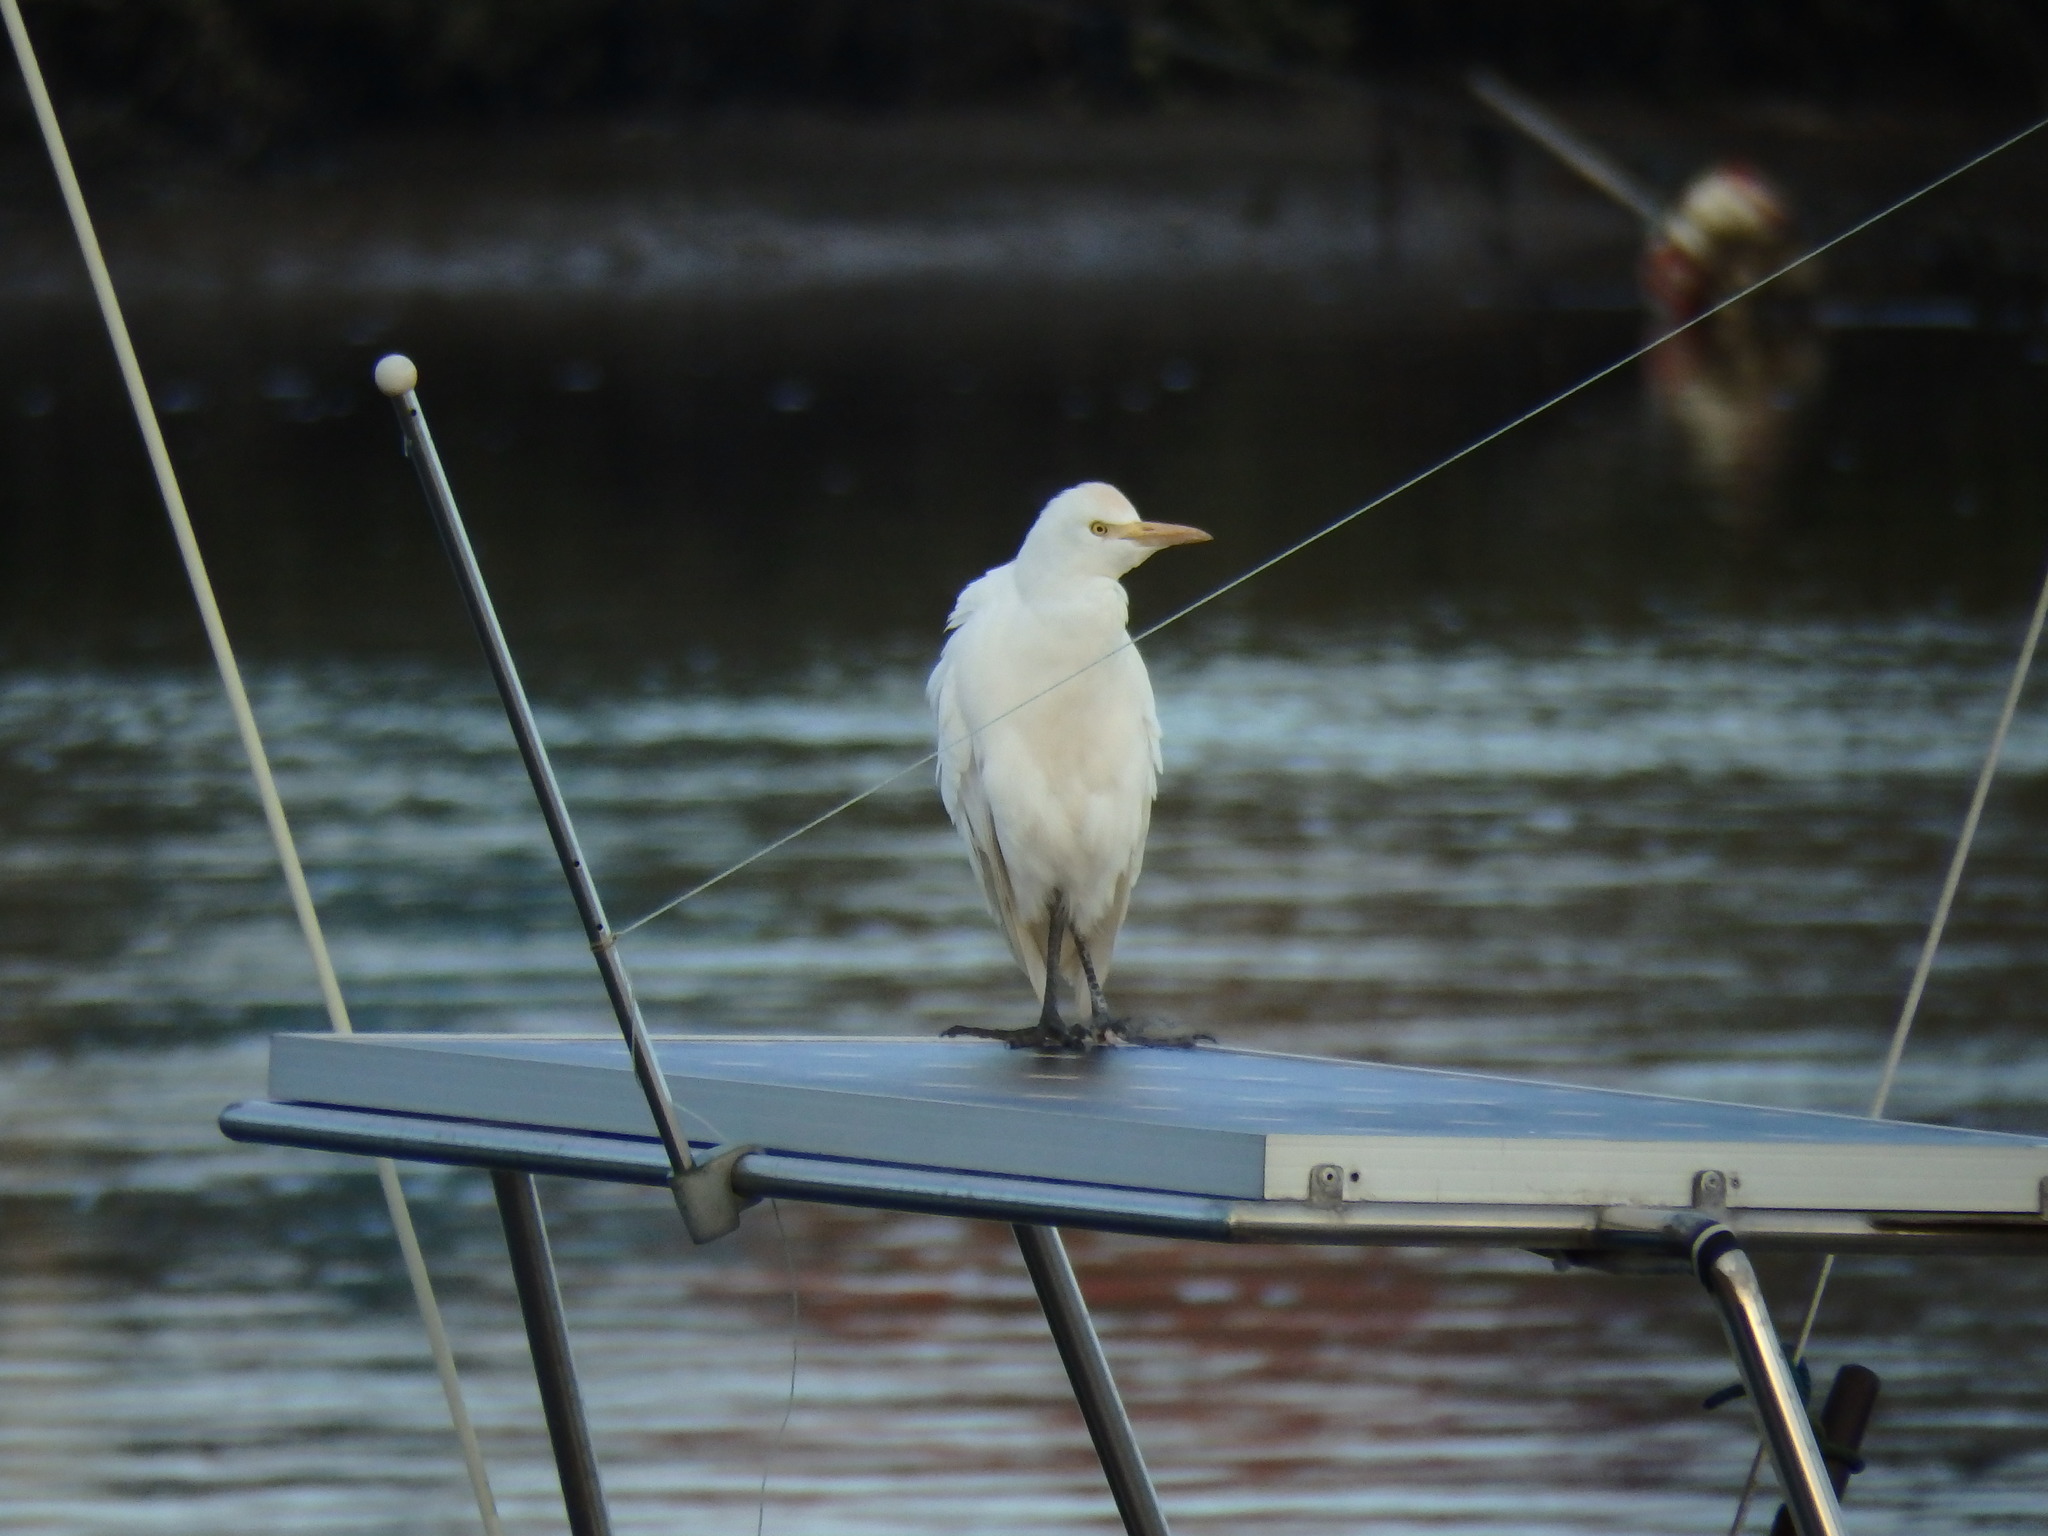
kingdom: Animalia
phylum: Chordata
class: Aves
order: Pelecaniformes
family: Ardeidae
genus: Bubulcus
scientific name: Bubulcus ibis
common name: Cattle egret
